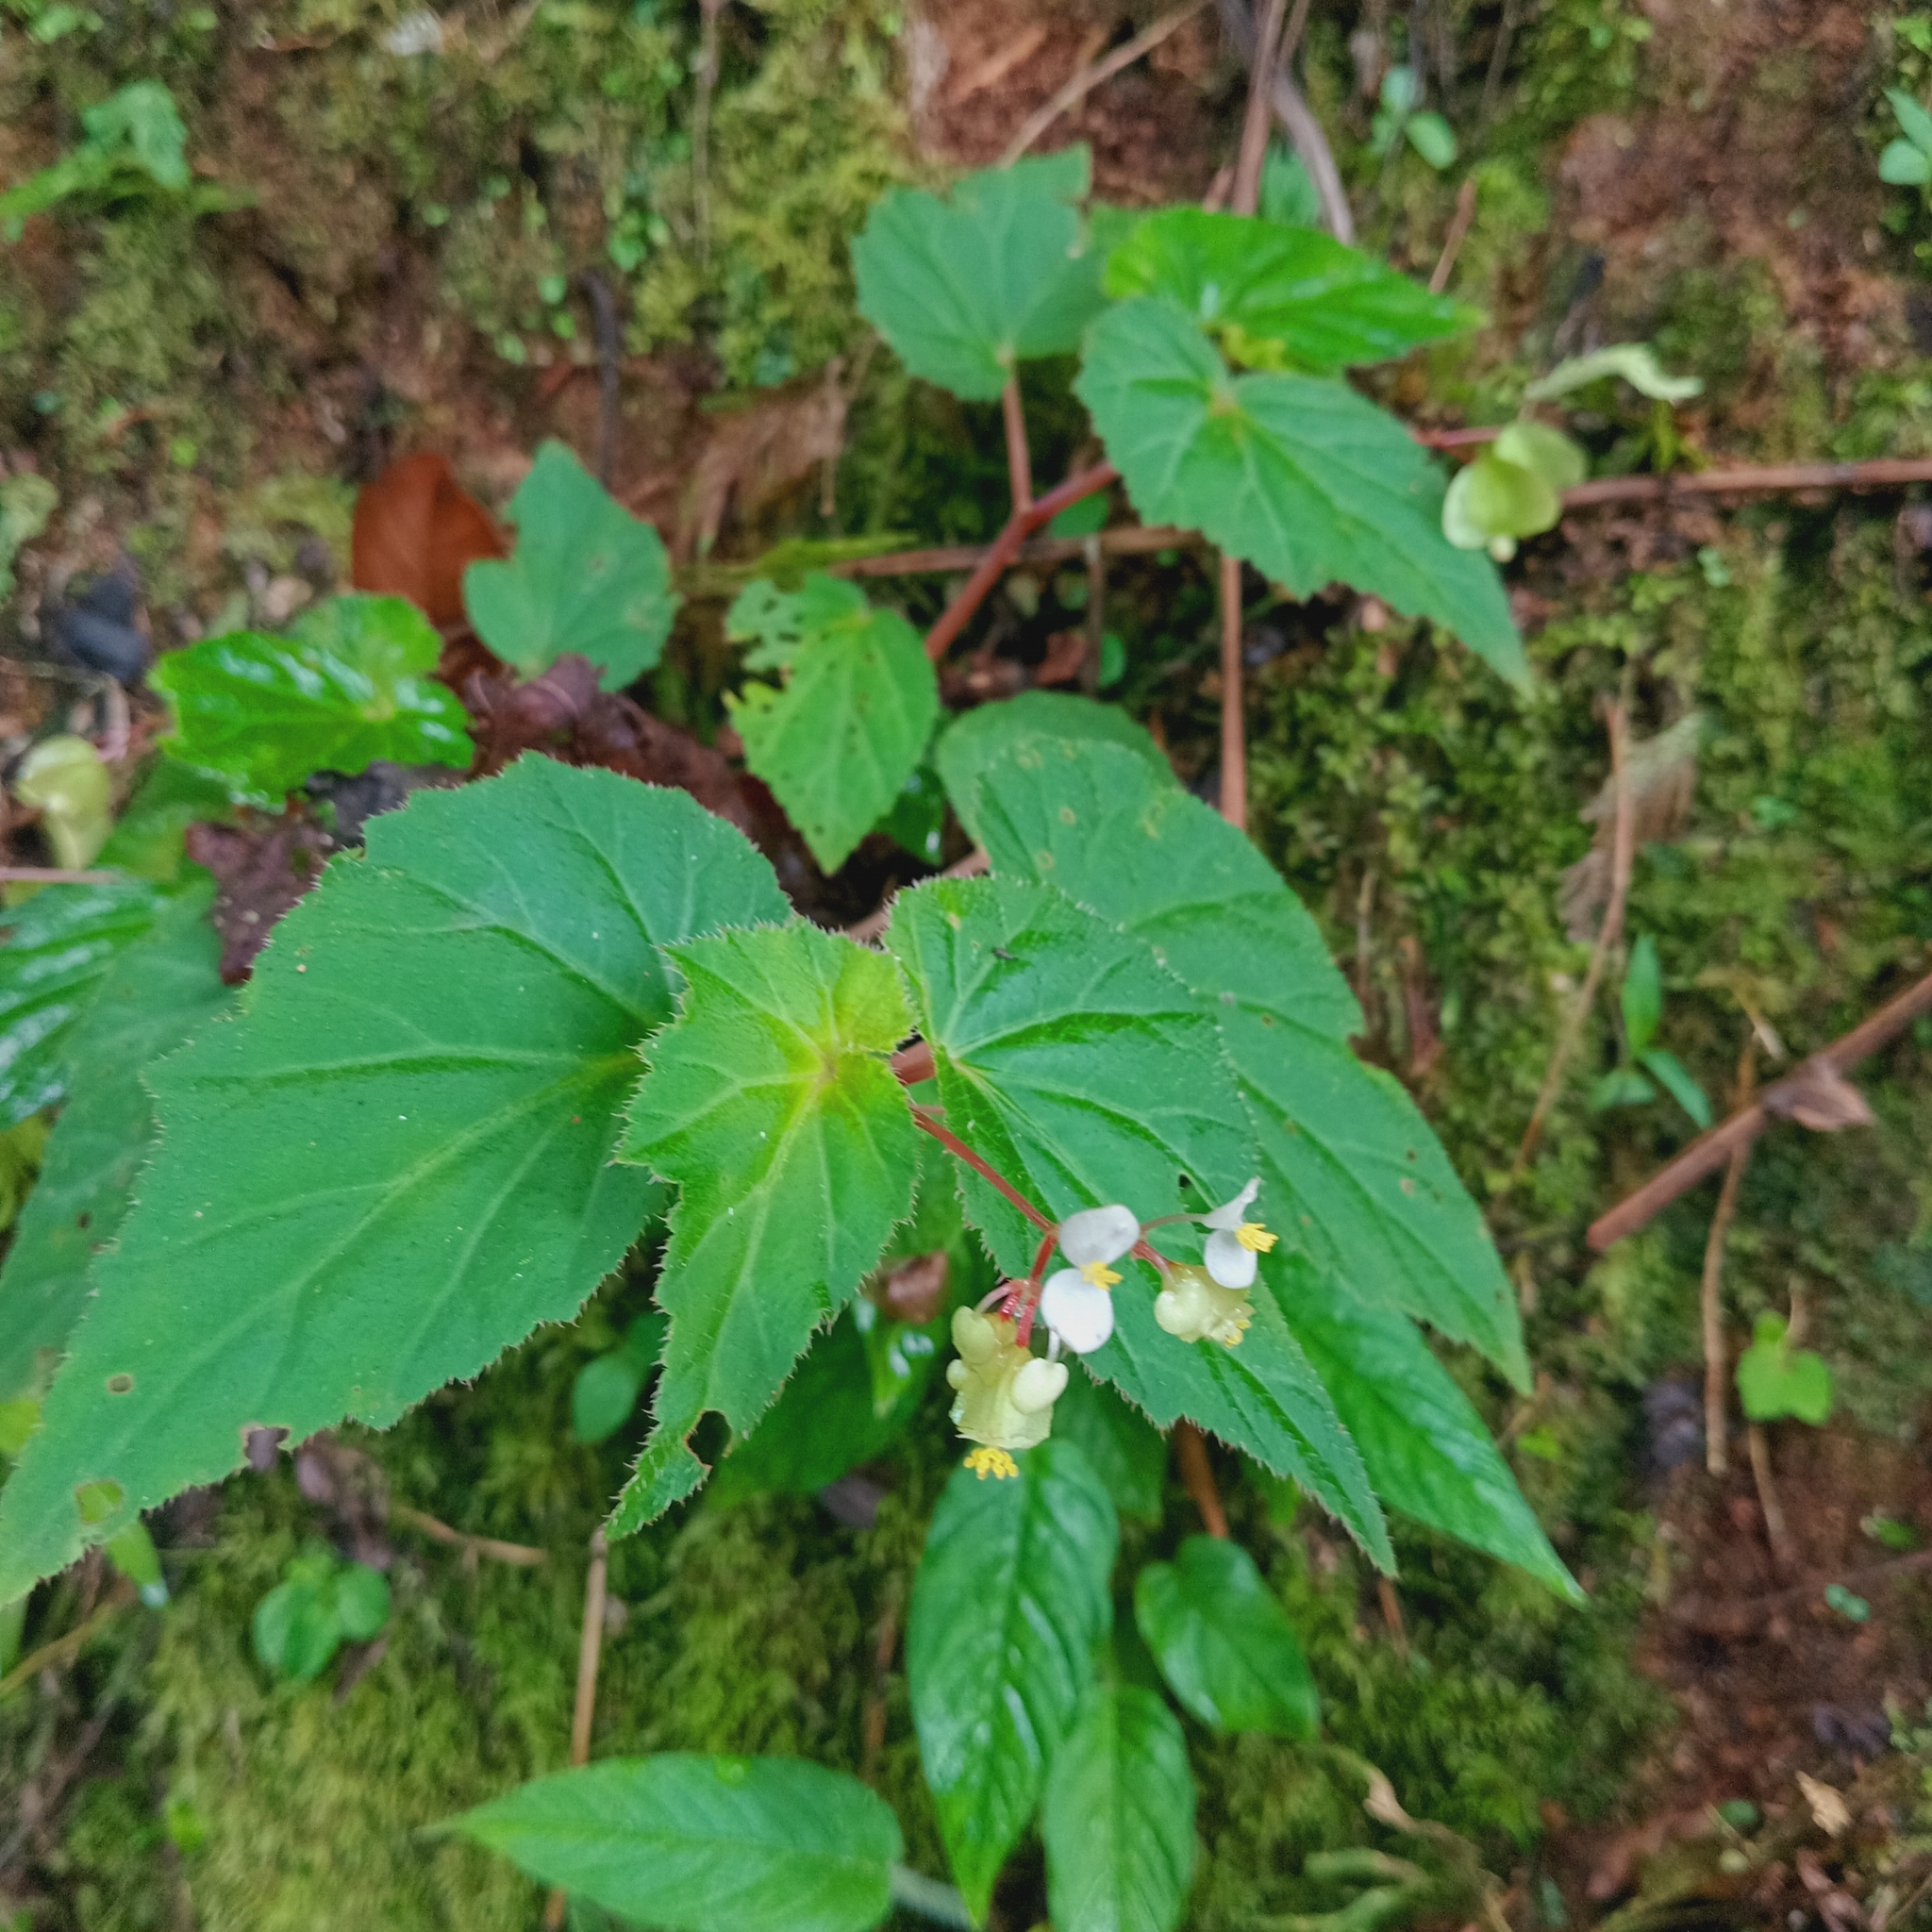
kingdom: Plantae
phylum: Tracheophyta
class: Magnoliopsida
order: Cucurbitales
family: Begoniaceae
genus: Begonia
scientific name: Begonia humilis
